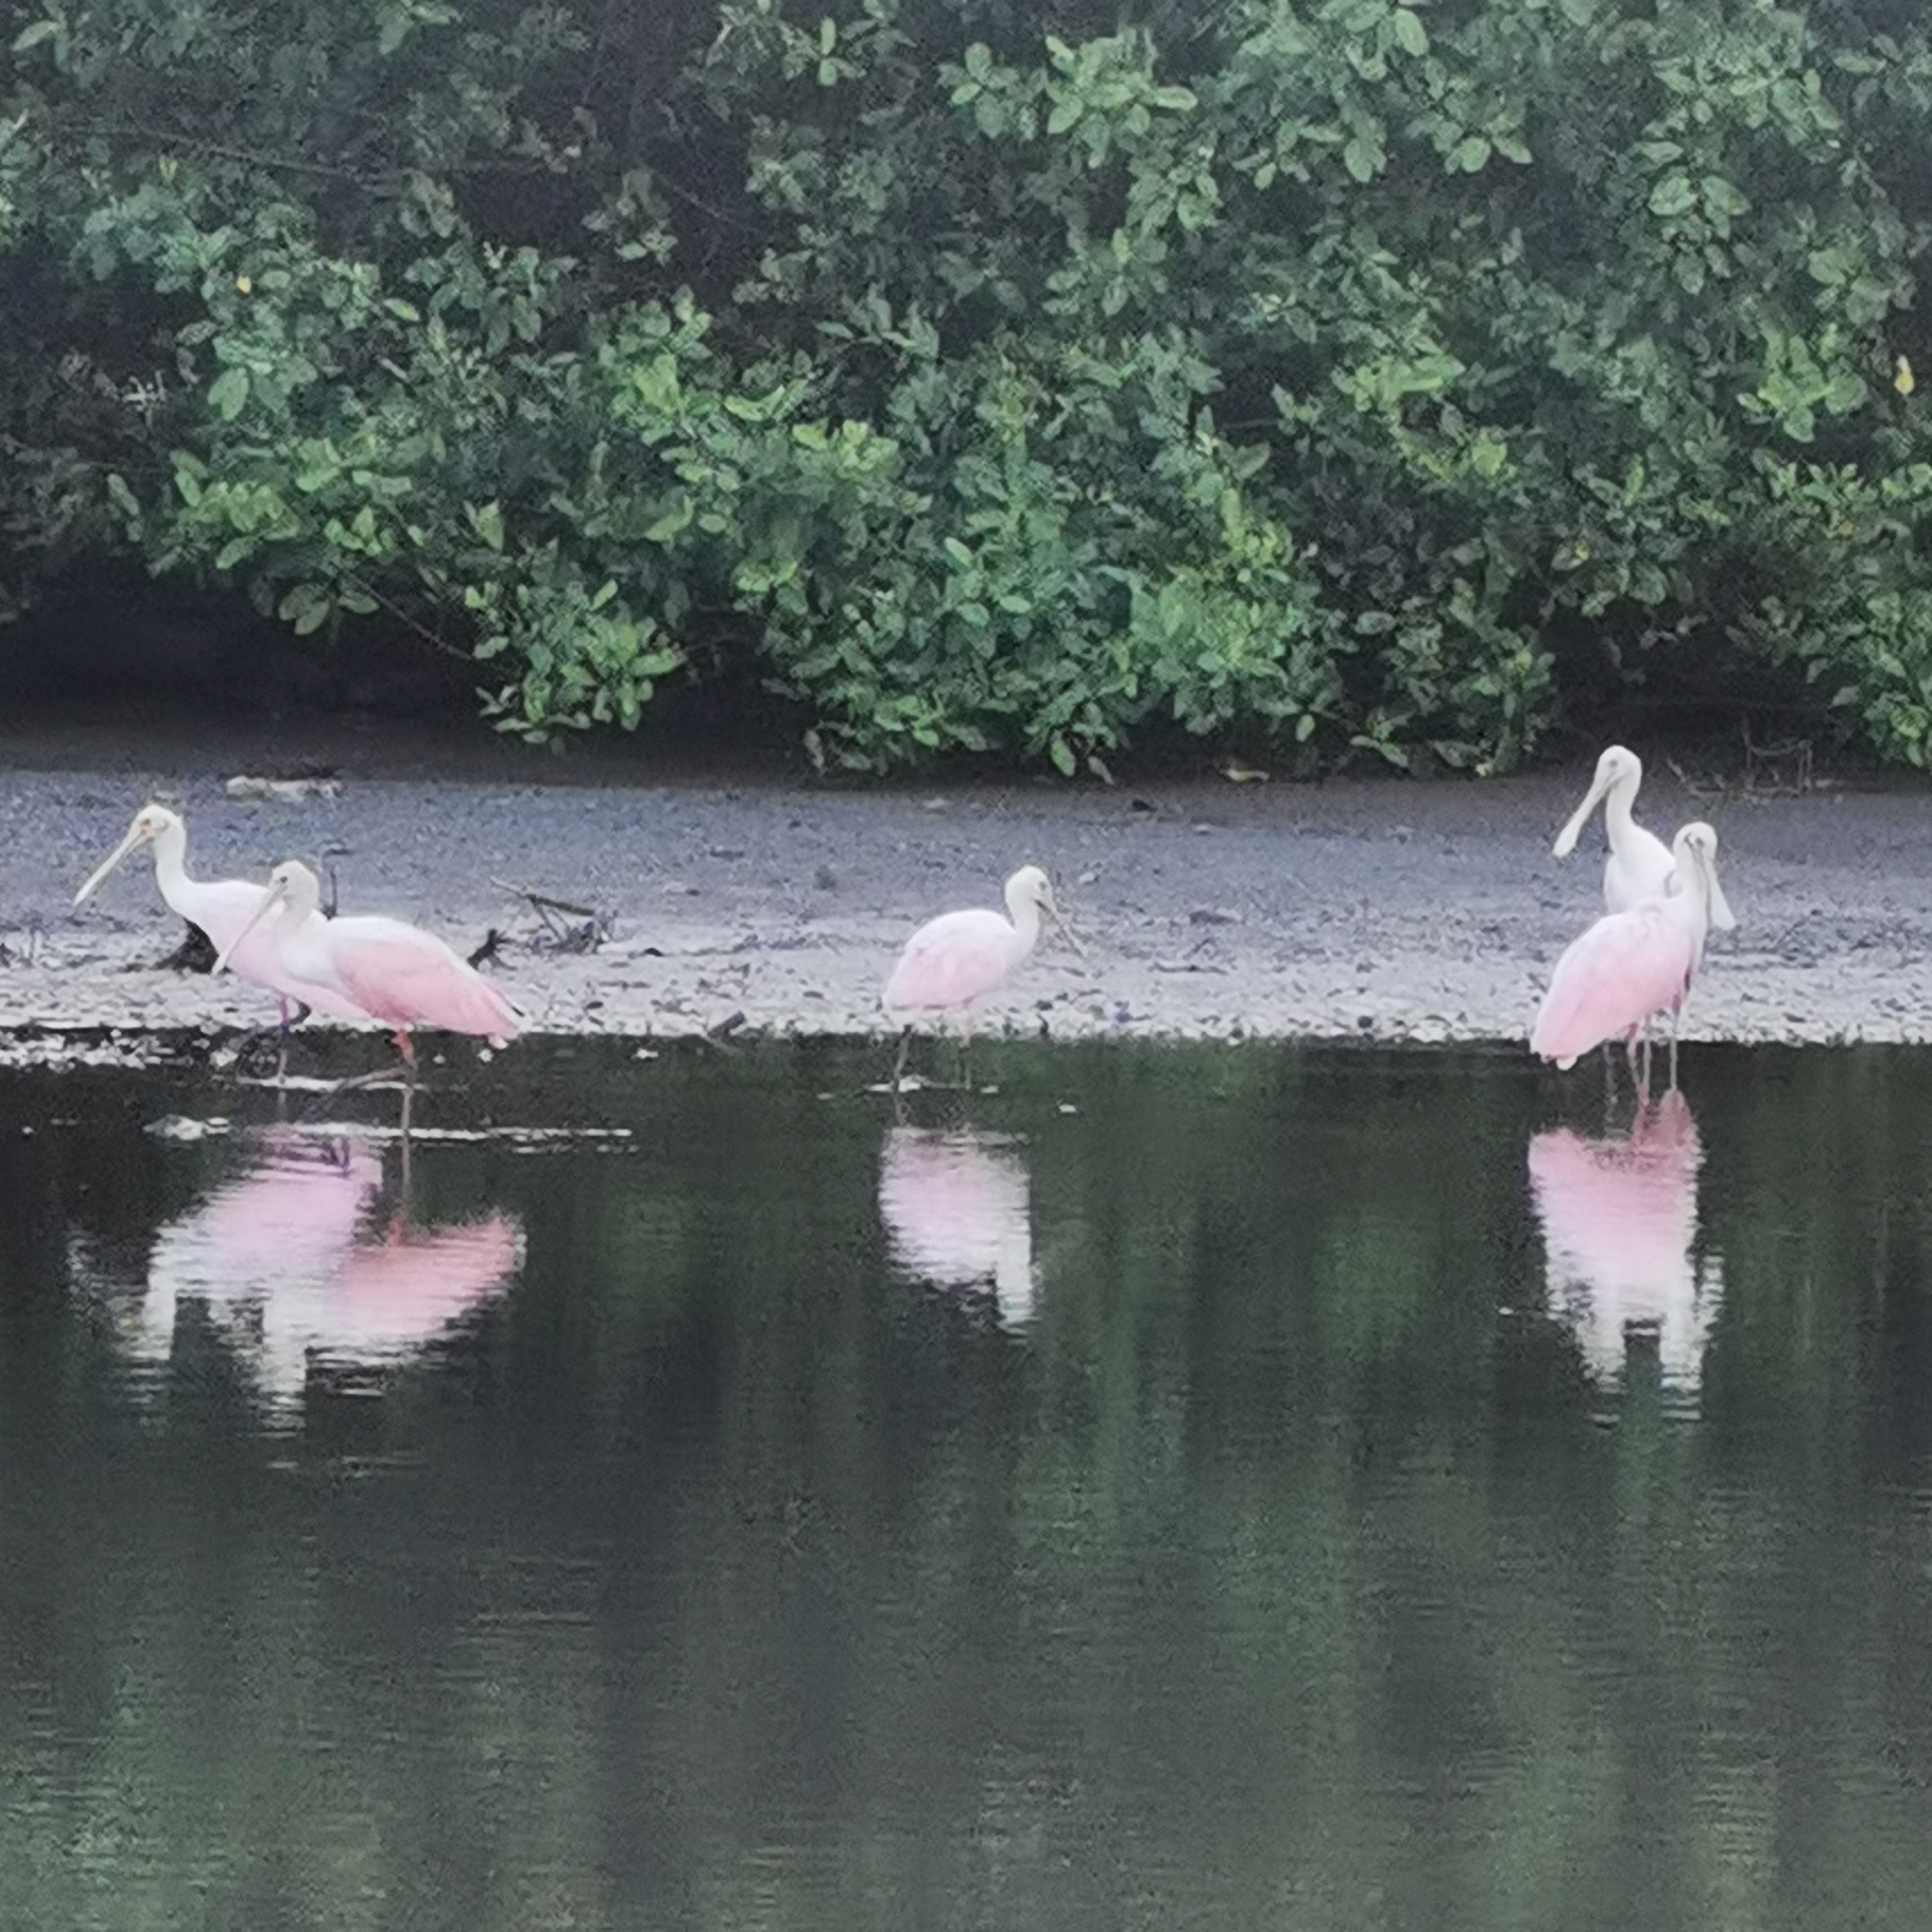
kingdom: Animalia
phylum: Chordata
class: Aves
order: Pelecaniformes
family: Threskiornithidae
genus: Platalea
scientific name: Platalea ajaja
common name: Roseate spoonbill
